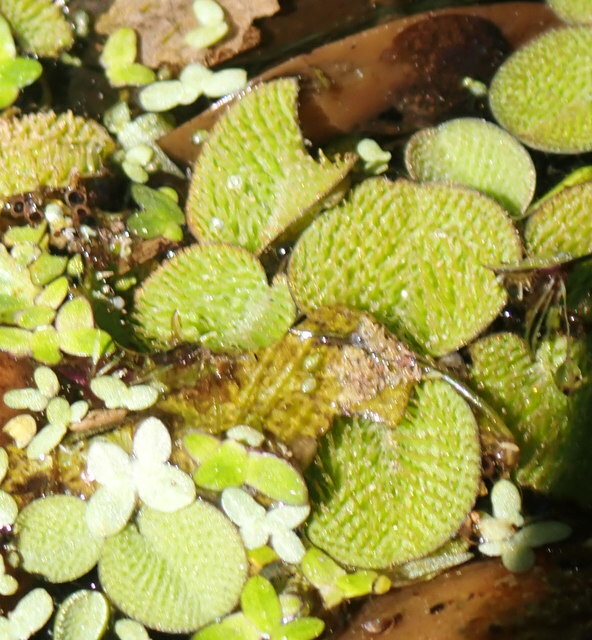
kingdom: Plantae
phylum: Tracheophyta
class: Polypodiopsida
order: Salviniales
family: Salviniaceae
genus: Salvinia
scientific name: Salvinia minima
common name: Water spangles
